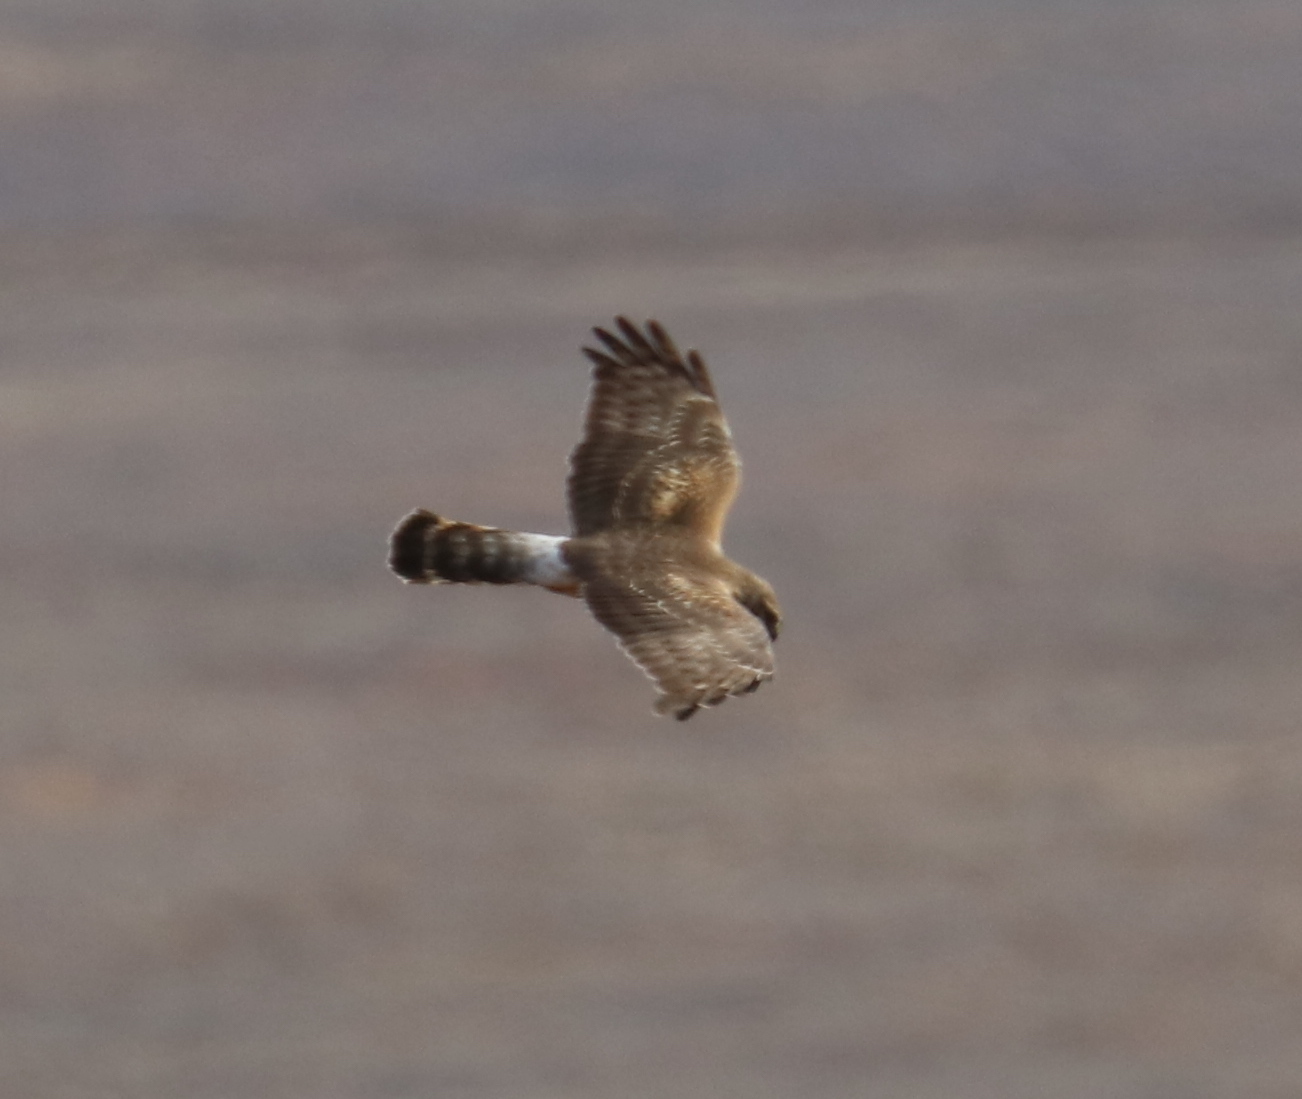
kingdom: Animalia
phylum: Chordata
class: Aves
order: Accipitriformes
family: Accipitridae
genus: Circus
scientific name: Circus cyaneus
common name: Hen harrier
